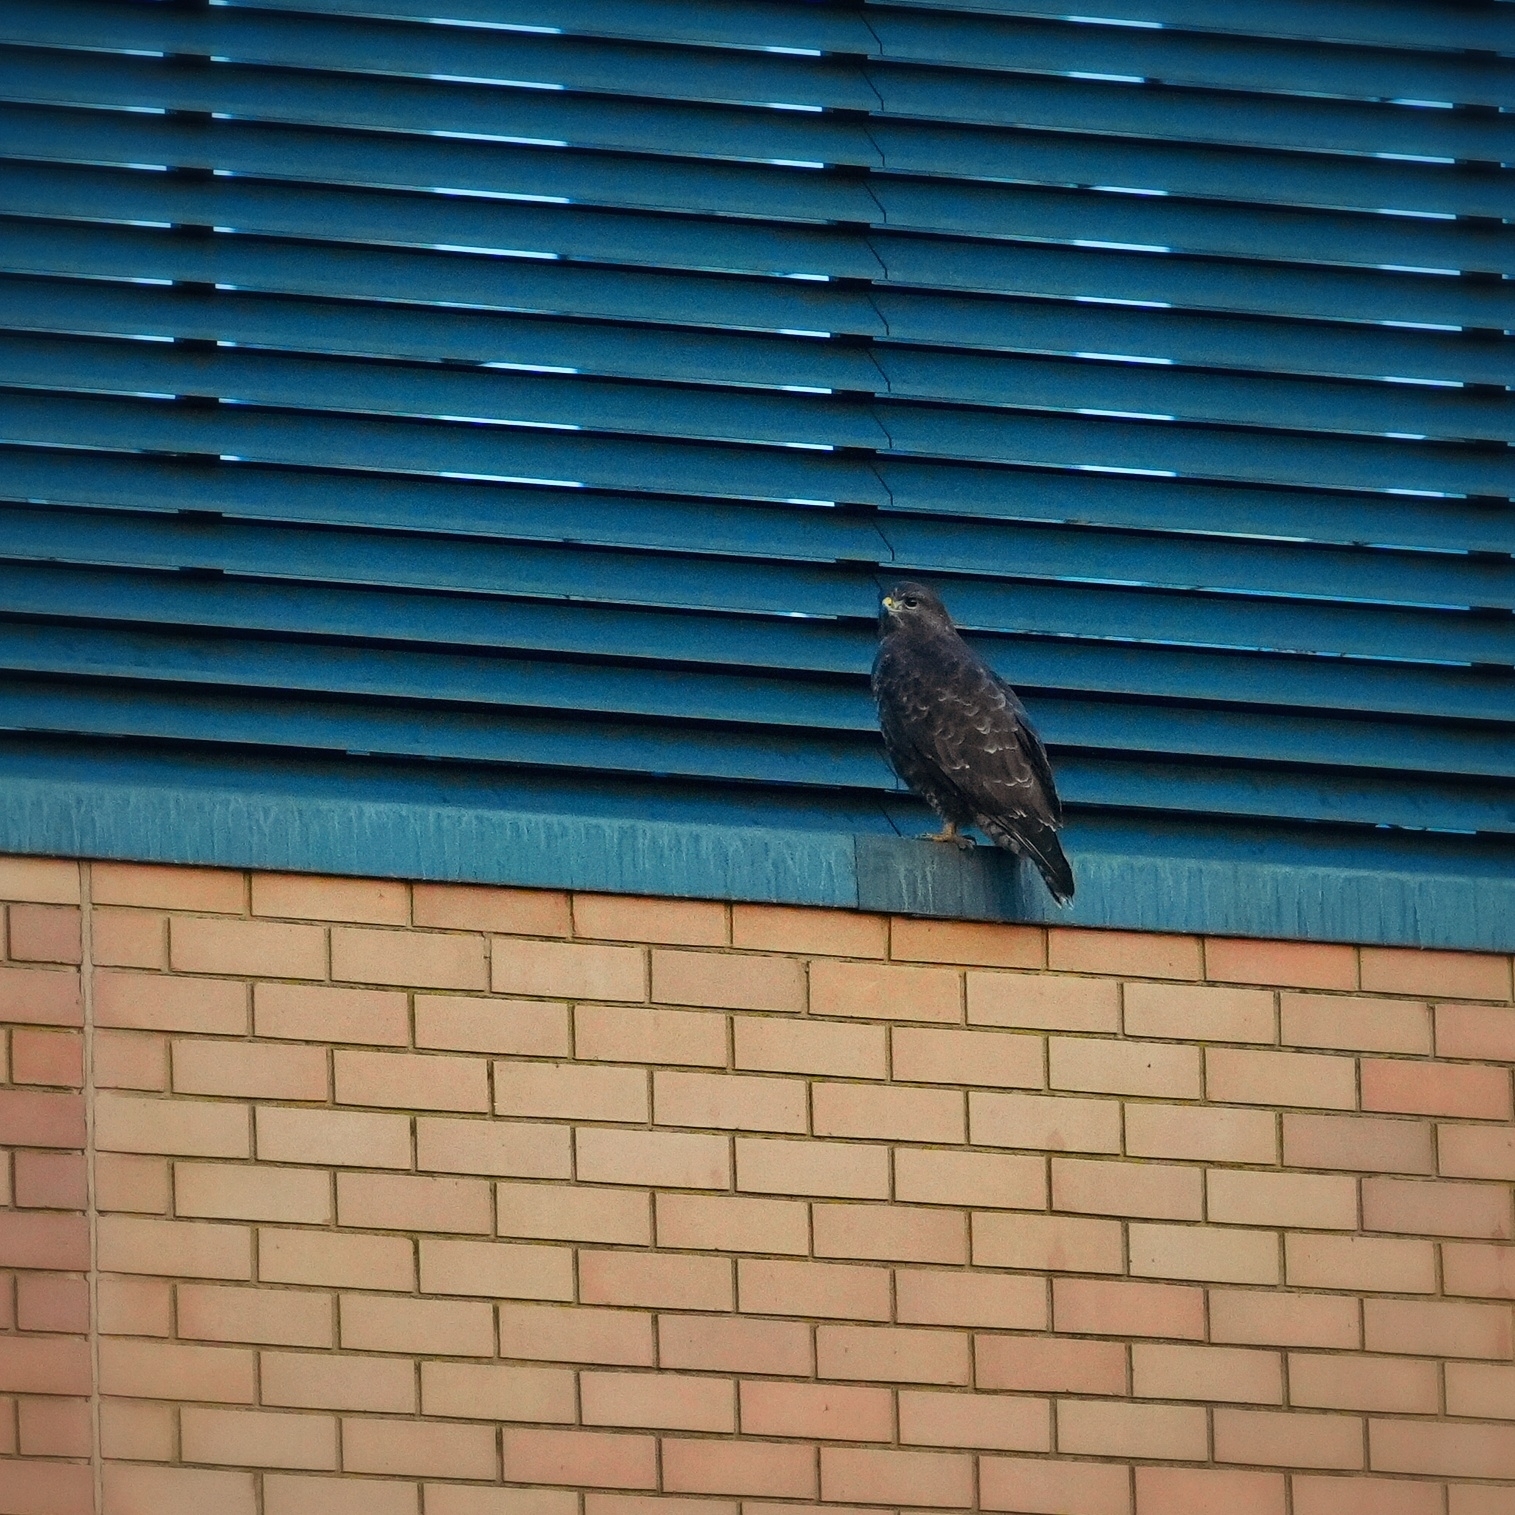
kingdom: Animalia
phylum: Chordata
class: Aves
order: Accipitriformes
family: Accipitridae
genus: Buteo
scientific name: Buteo buteo
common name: Common buzzard
